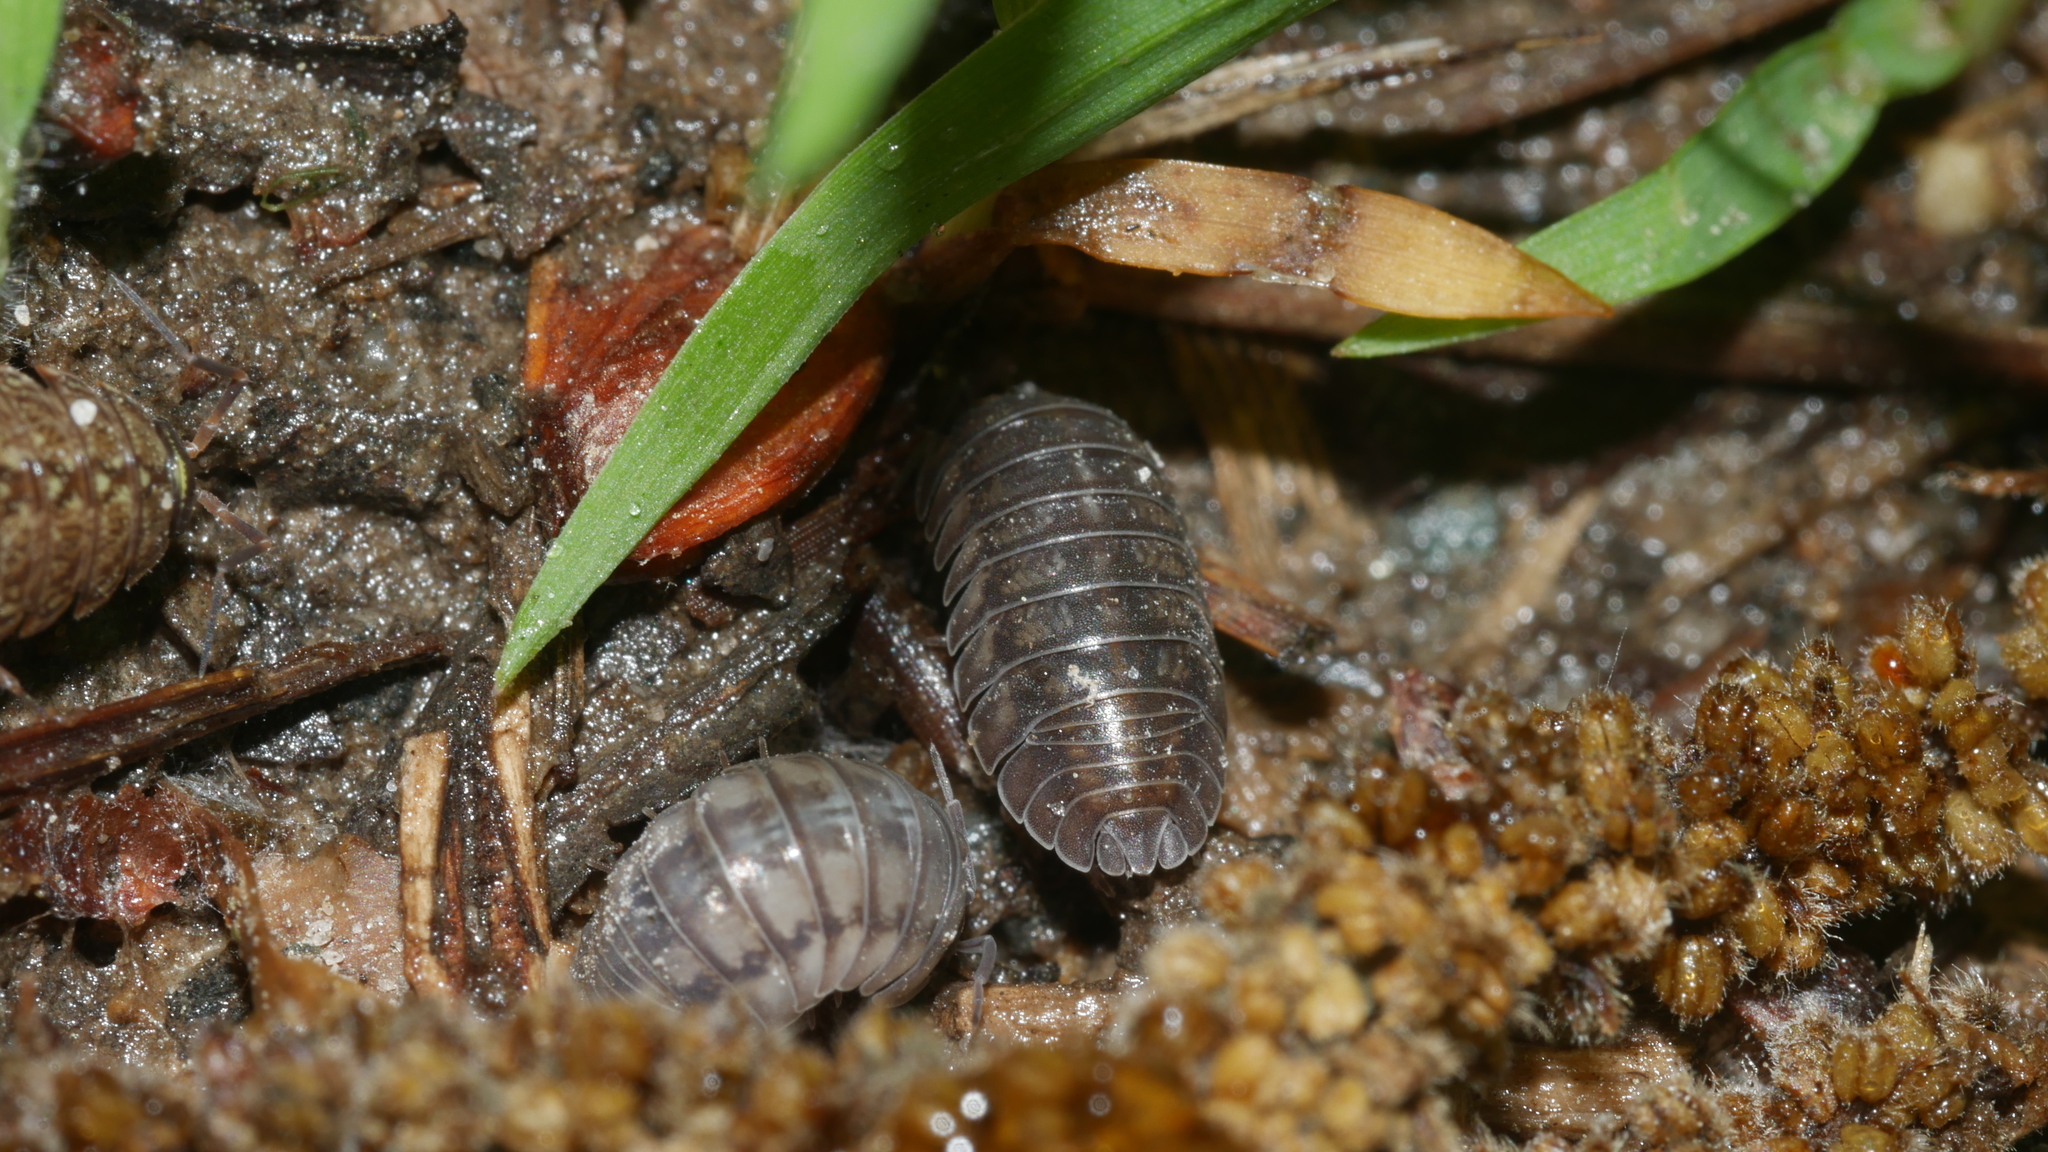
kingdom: Animalia
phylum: Arthropoda
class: Malacostraca
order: Isopoda
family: Armadillidiidae
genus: Armadillidium
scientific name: Armadillidium nasatum
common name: Isopod
